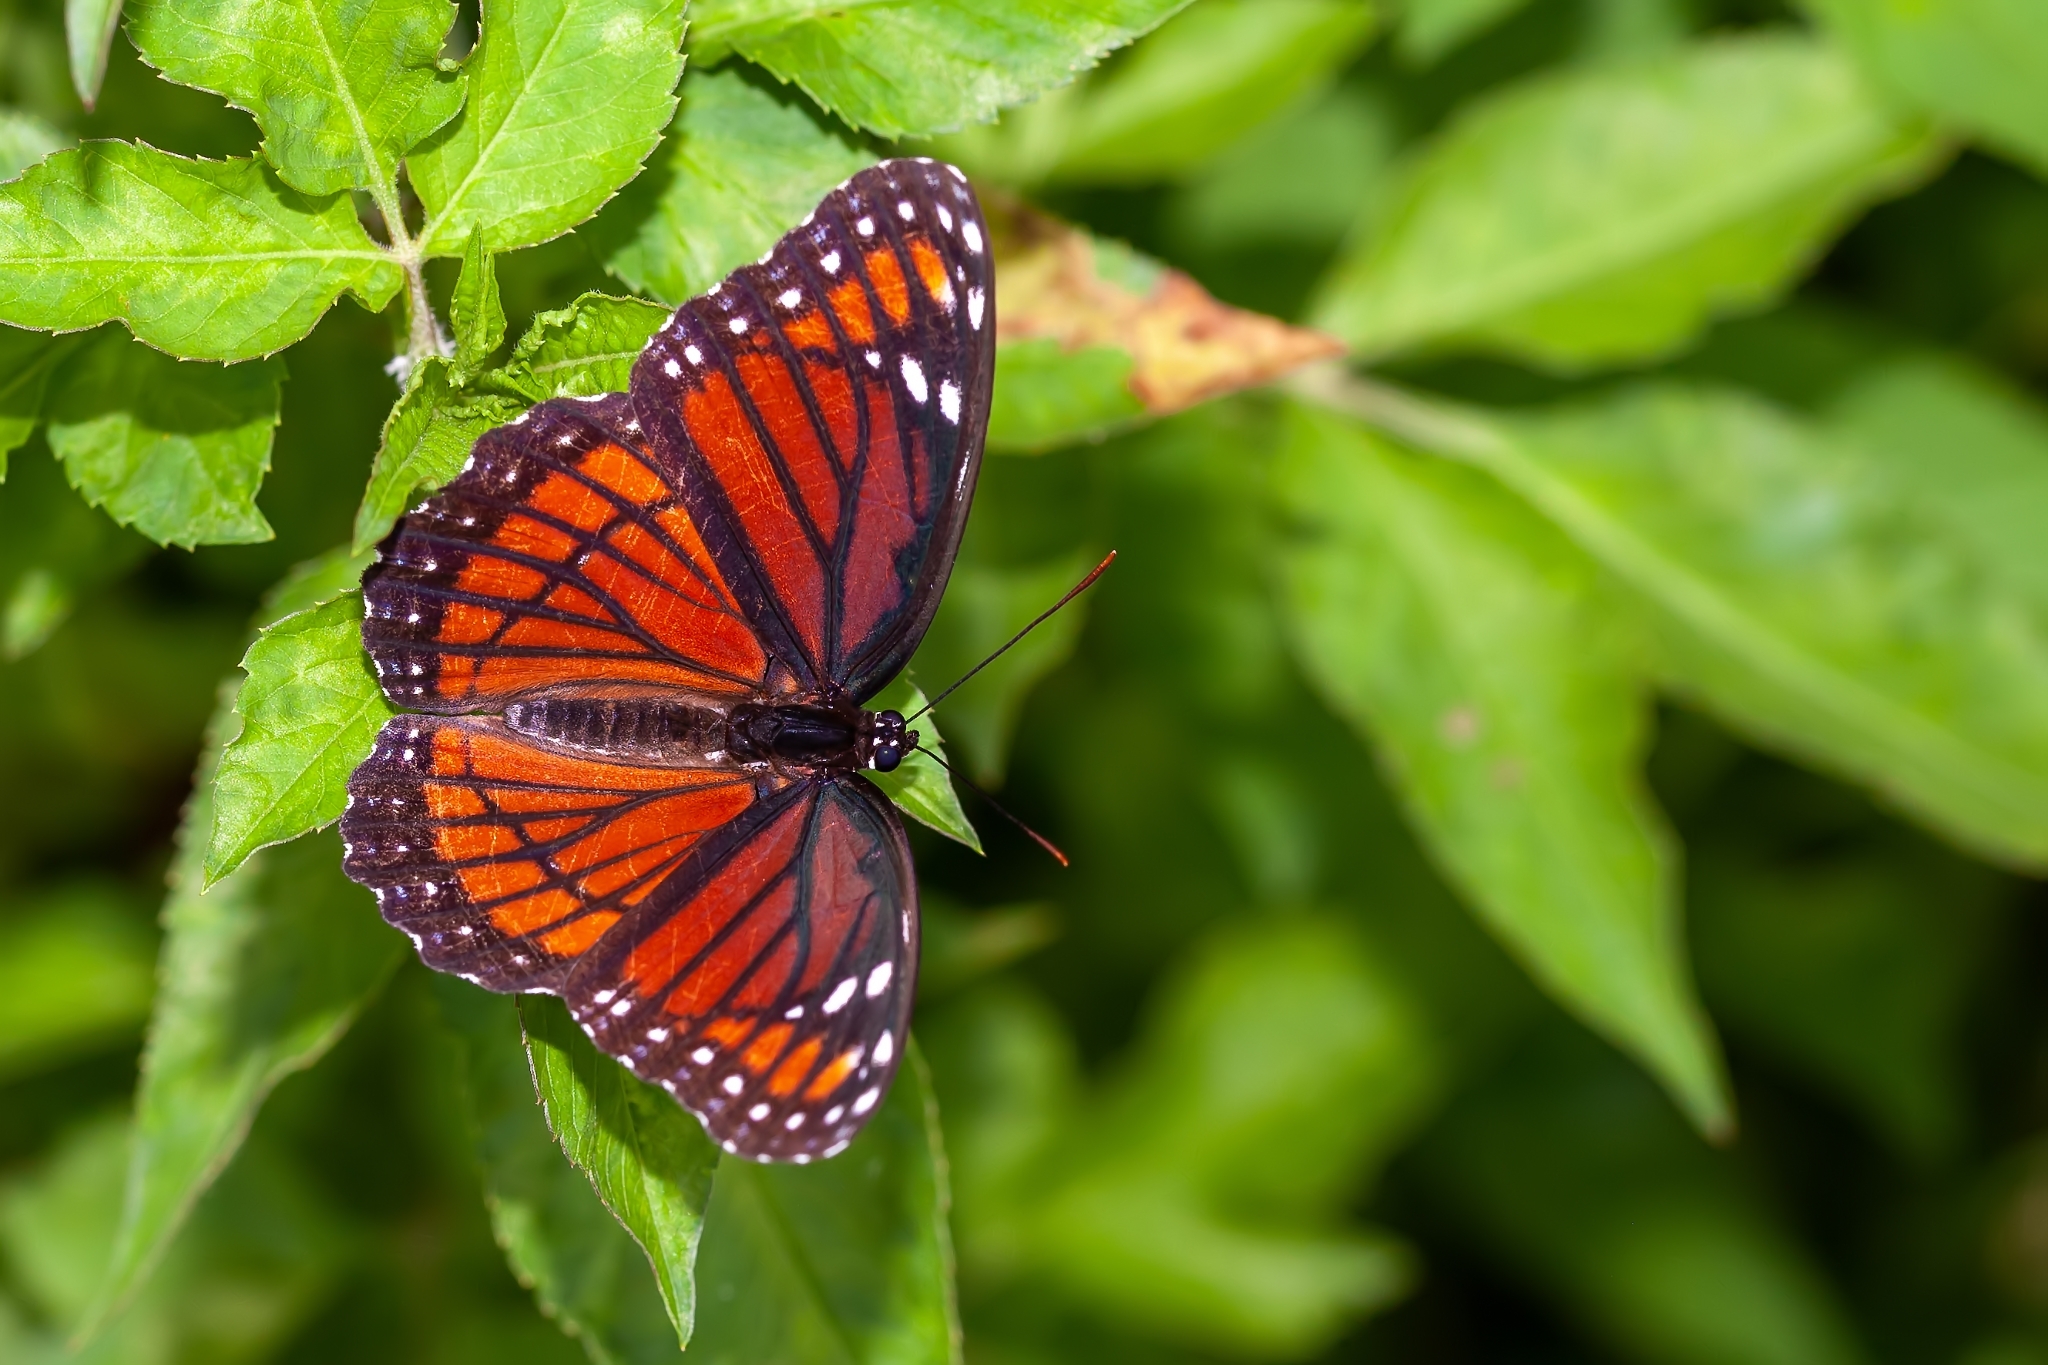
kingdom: Animalia
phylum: Arthropoda
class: Insecta
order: Lepidoptera
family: Nymphalidae
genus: Limenitis
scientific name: Limenitis archippus
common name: Viceroy
